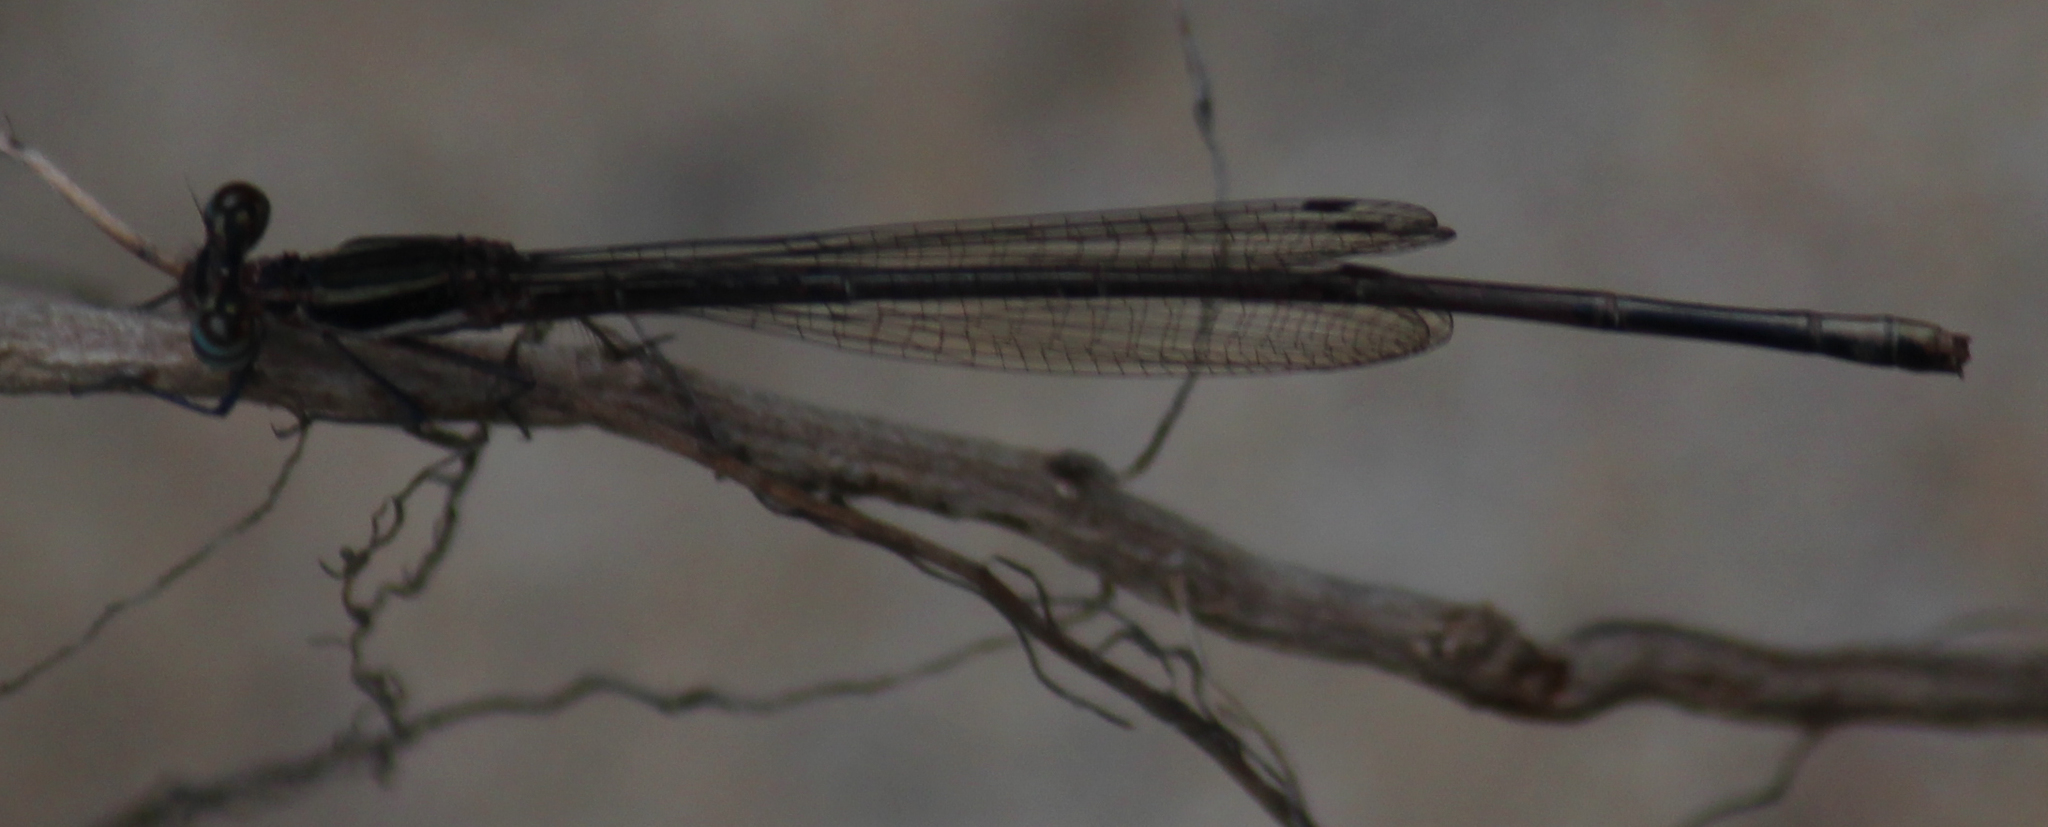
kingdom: Animalia
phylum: Arthropoda
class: Insecta
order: Odonata
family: Platycnemididae
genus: Elattoneura
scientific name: Elattoneura glauca
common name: Common threadtail
